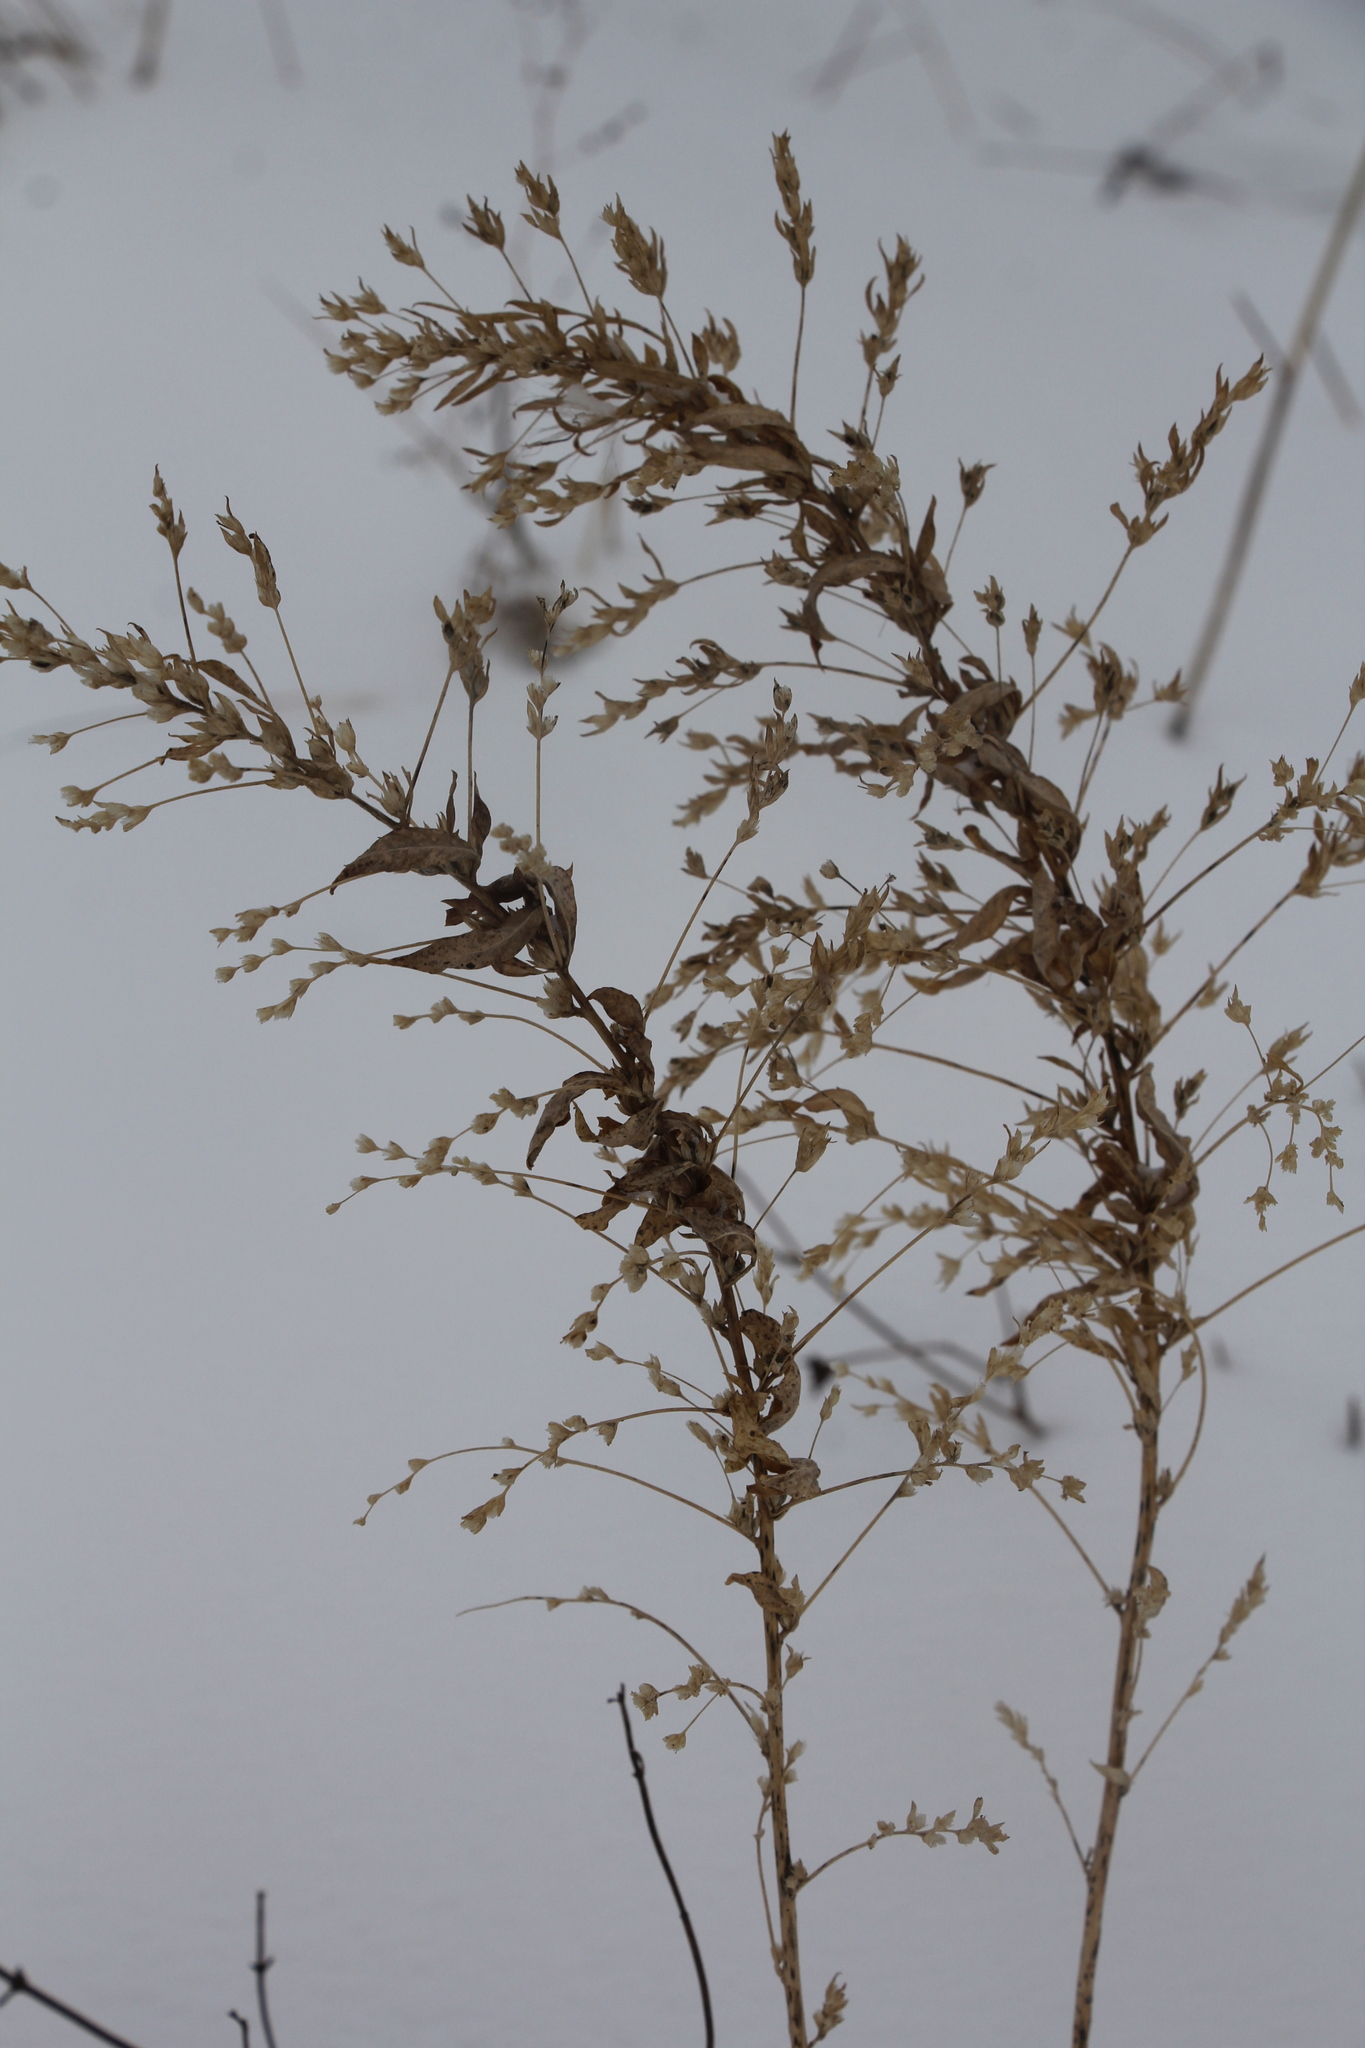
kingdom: Plantae
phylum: Tracheophyta
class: Magnoliopsida
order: Caryophyllales
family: Amaranthaceae
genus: Axyris
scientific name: Axyris amaranthoides
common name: Russian pigweed
